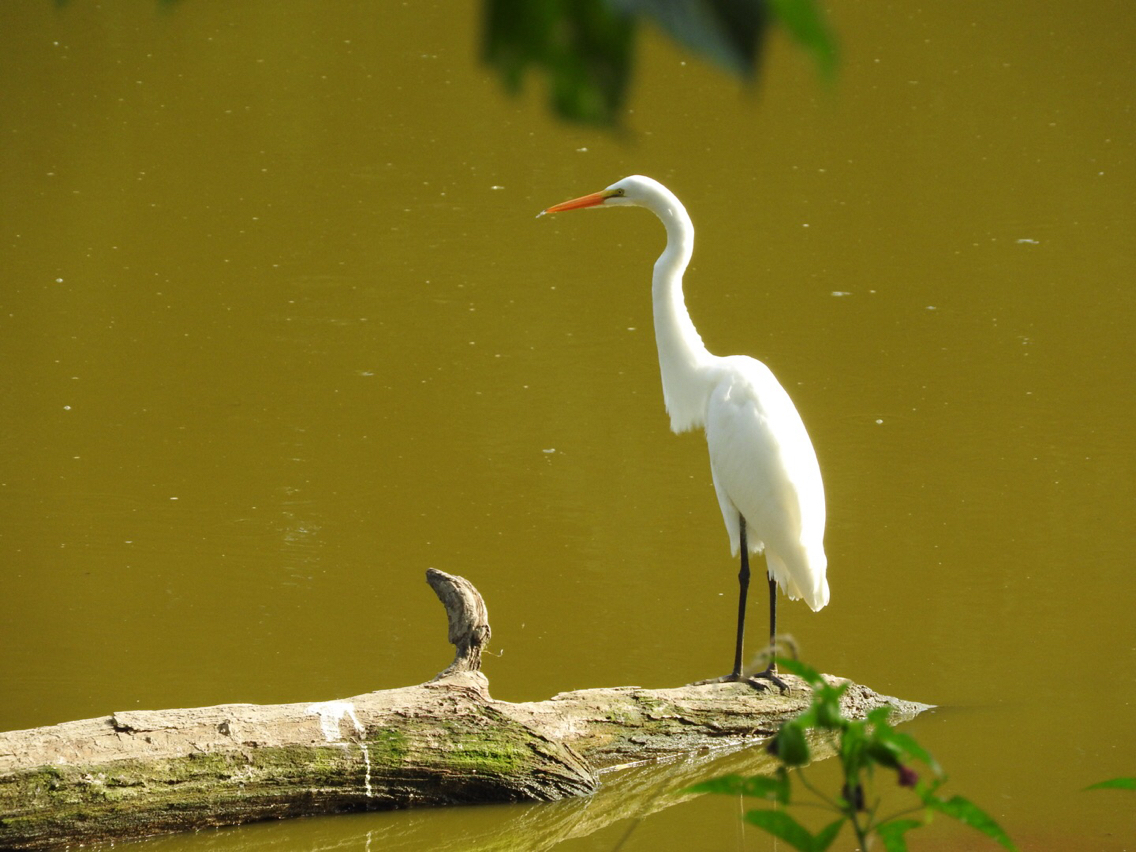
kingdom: Animalia
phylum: Chordata
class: Aves
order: Pelecaniformes
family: Ardeidae
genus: Ardea
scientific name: Ardea alba
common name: Great egret
